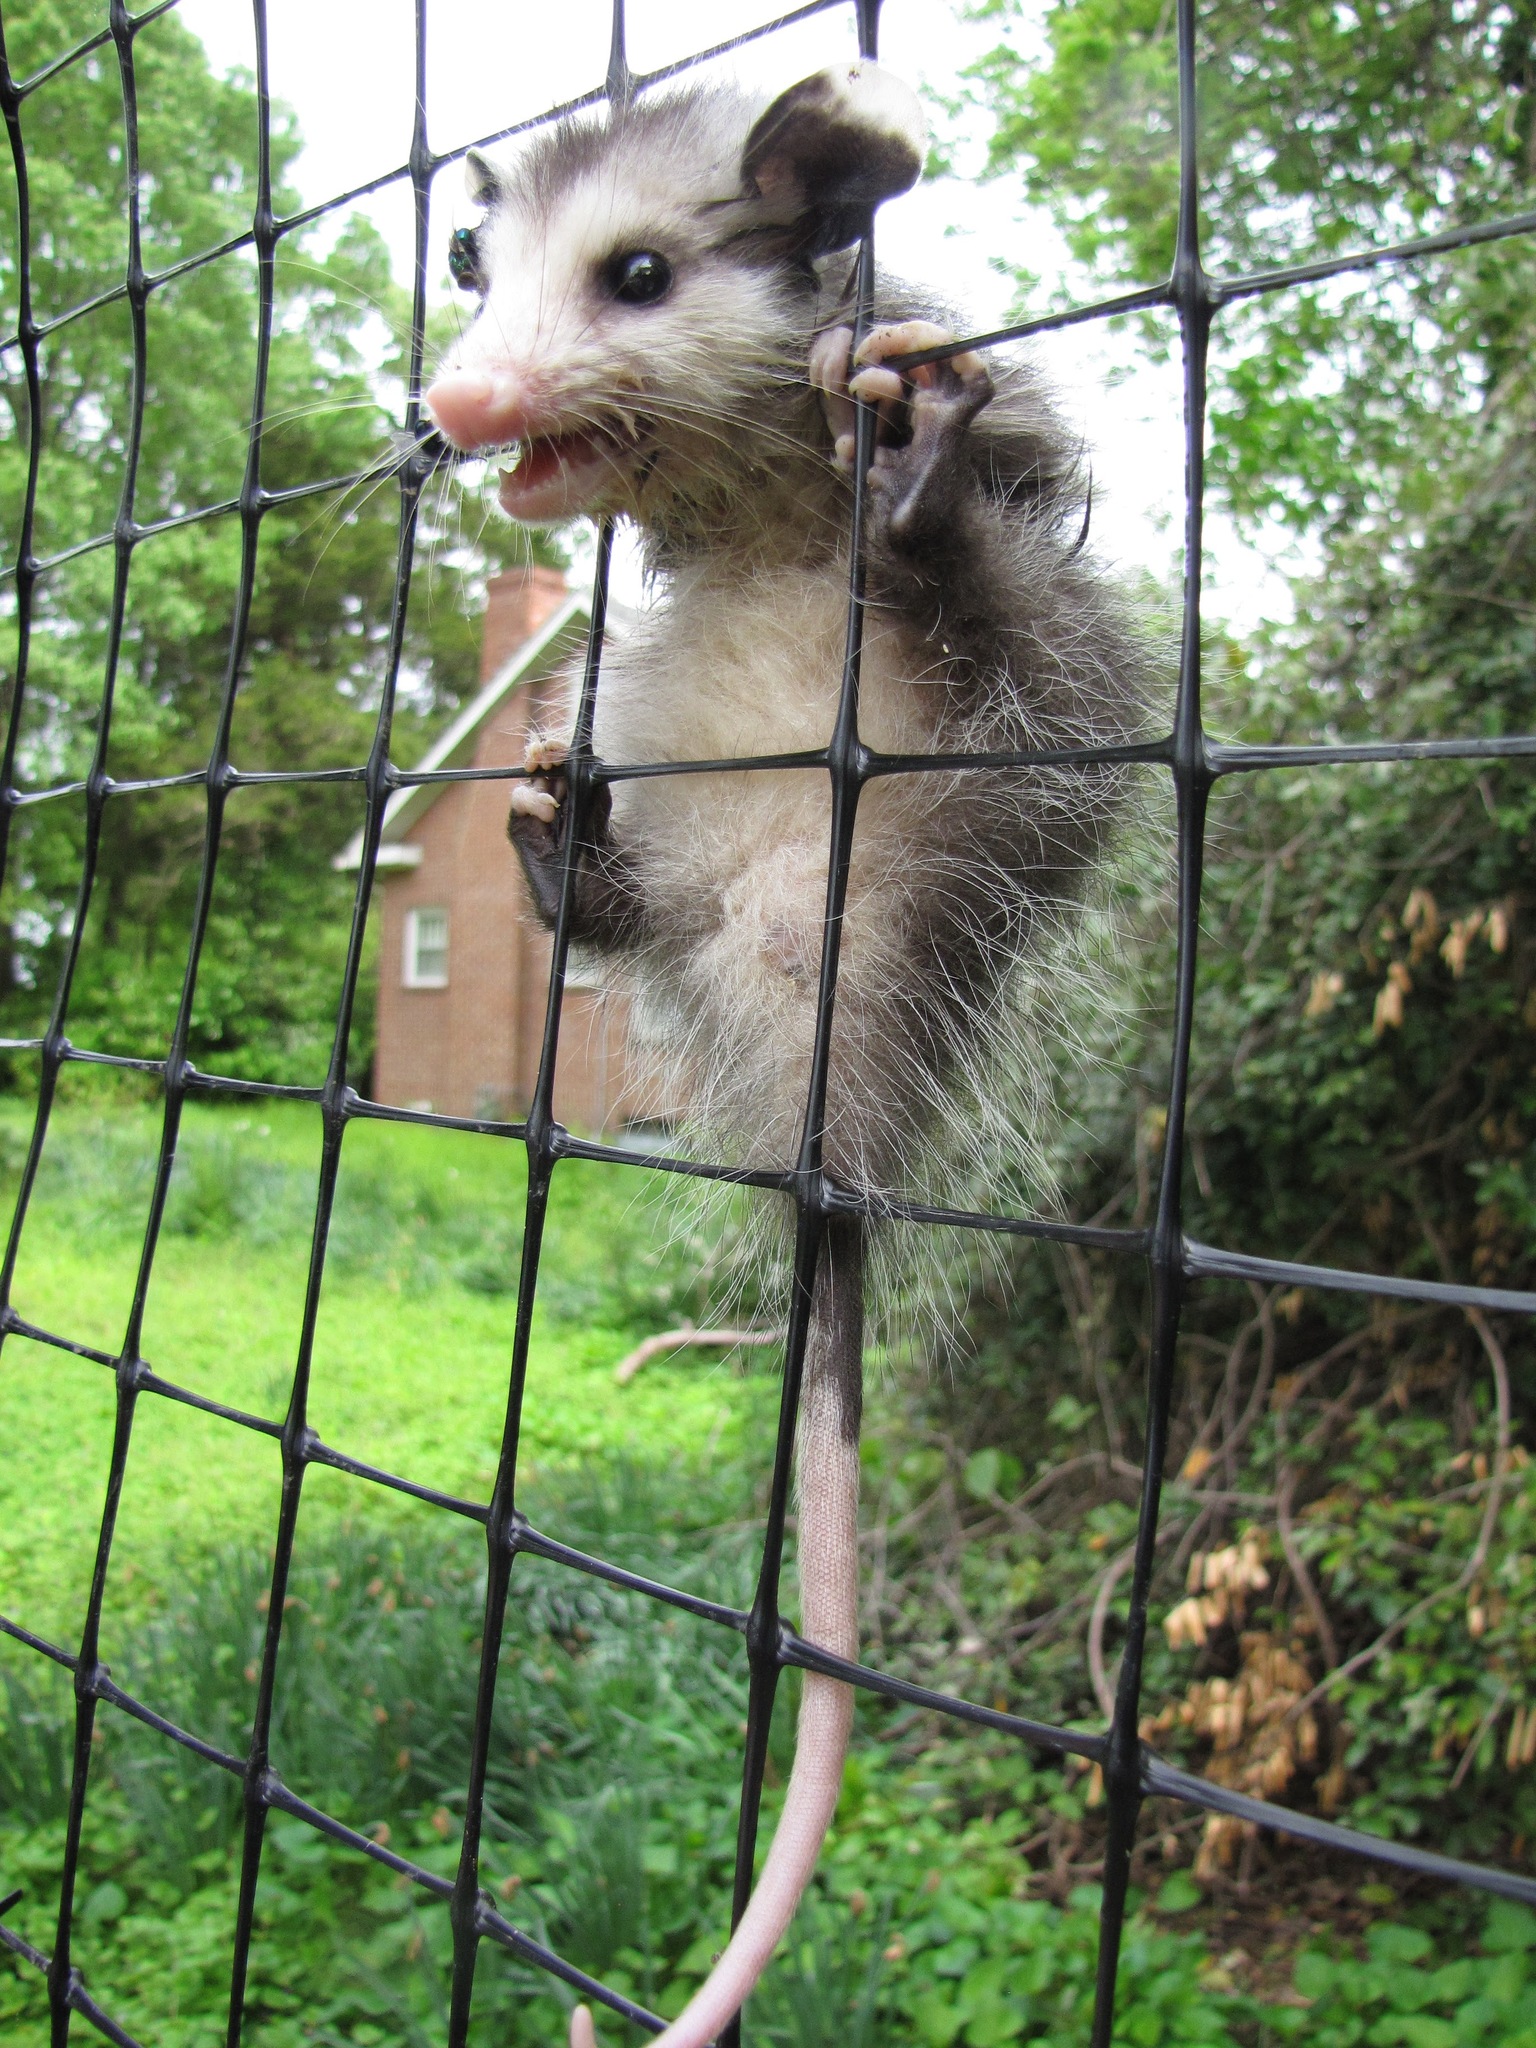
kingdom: Animalia
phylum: Chordata
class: Mammalia
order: Didelphimorphia
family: Didelphidae
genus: Didelphis
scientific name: Didelphis virginiana
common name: Virginia opossum
